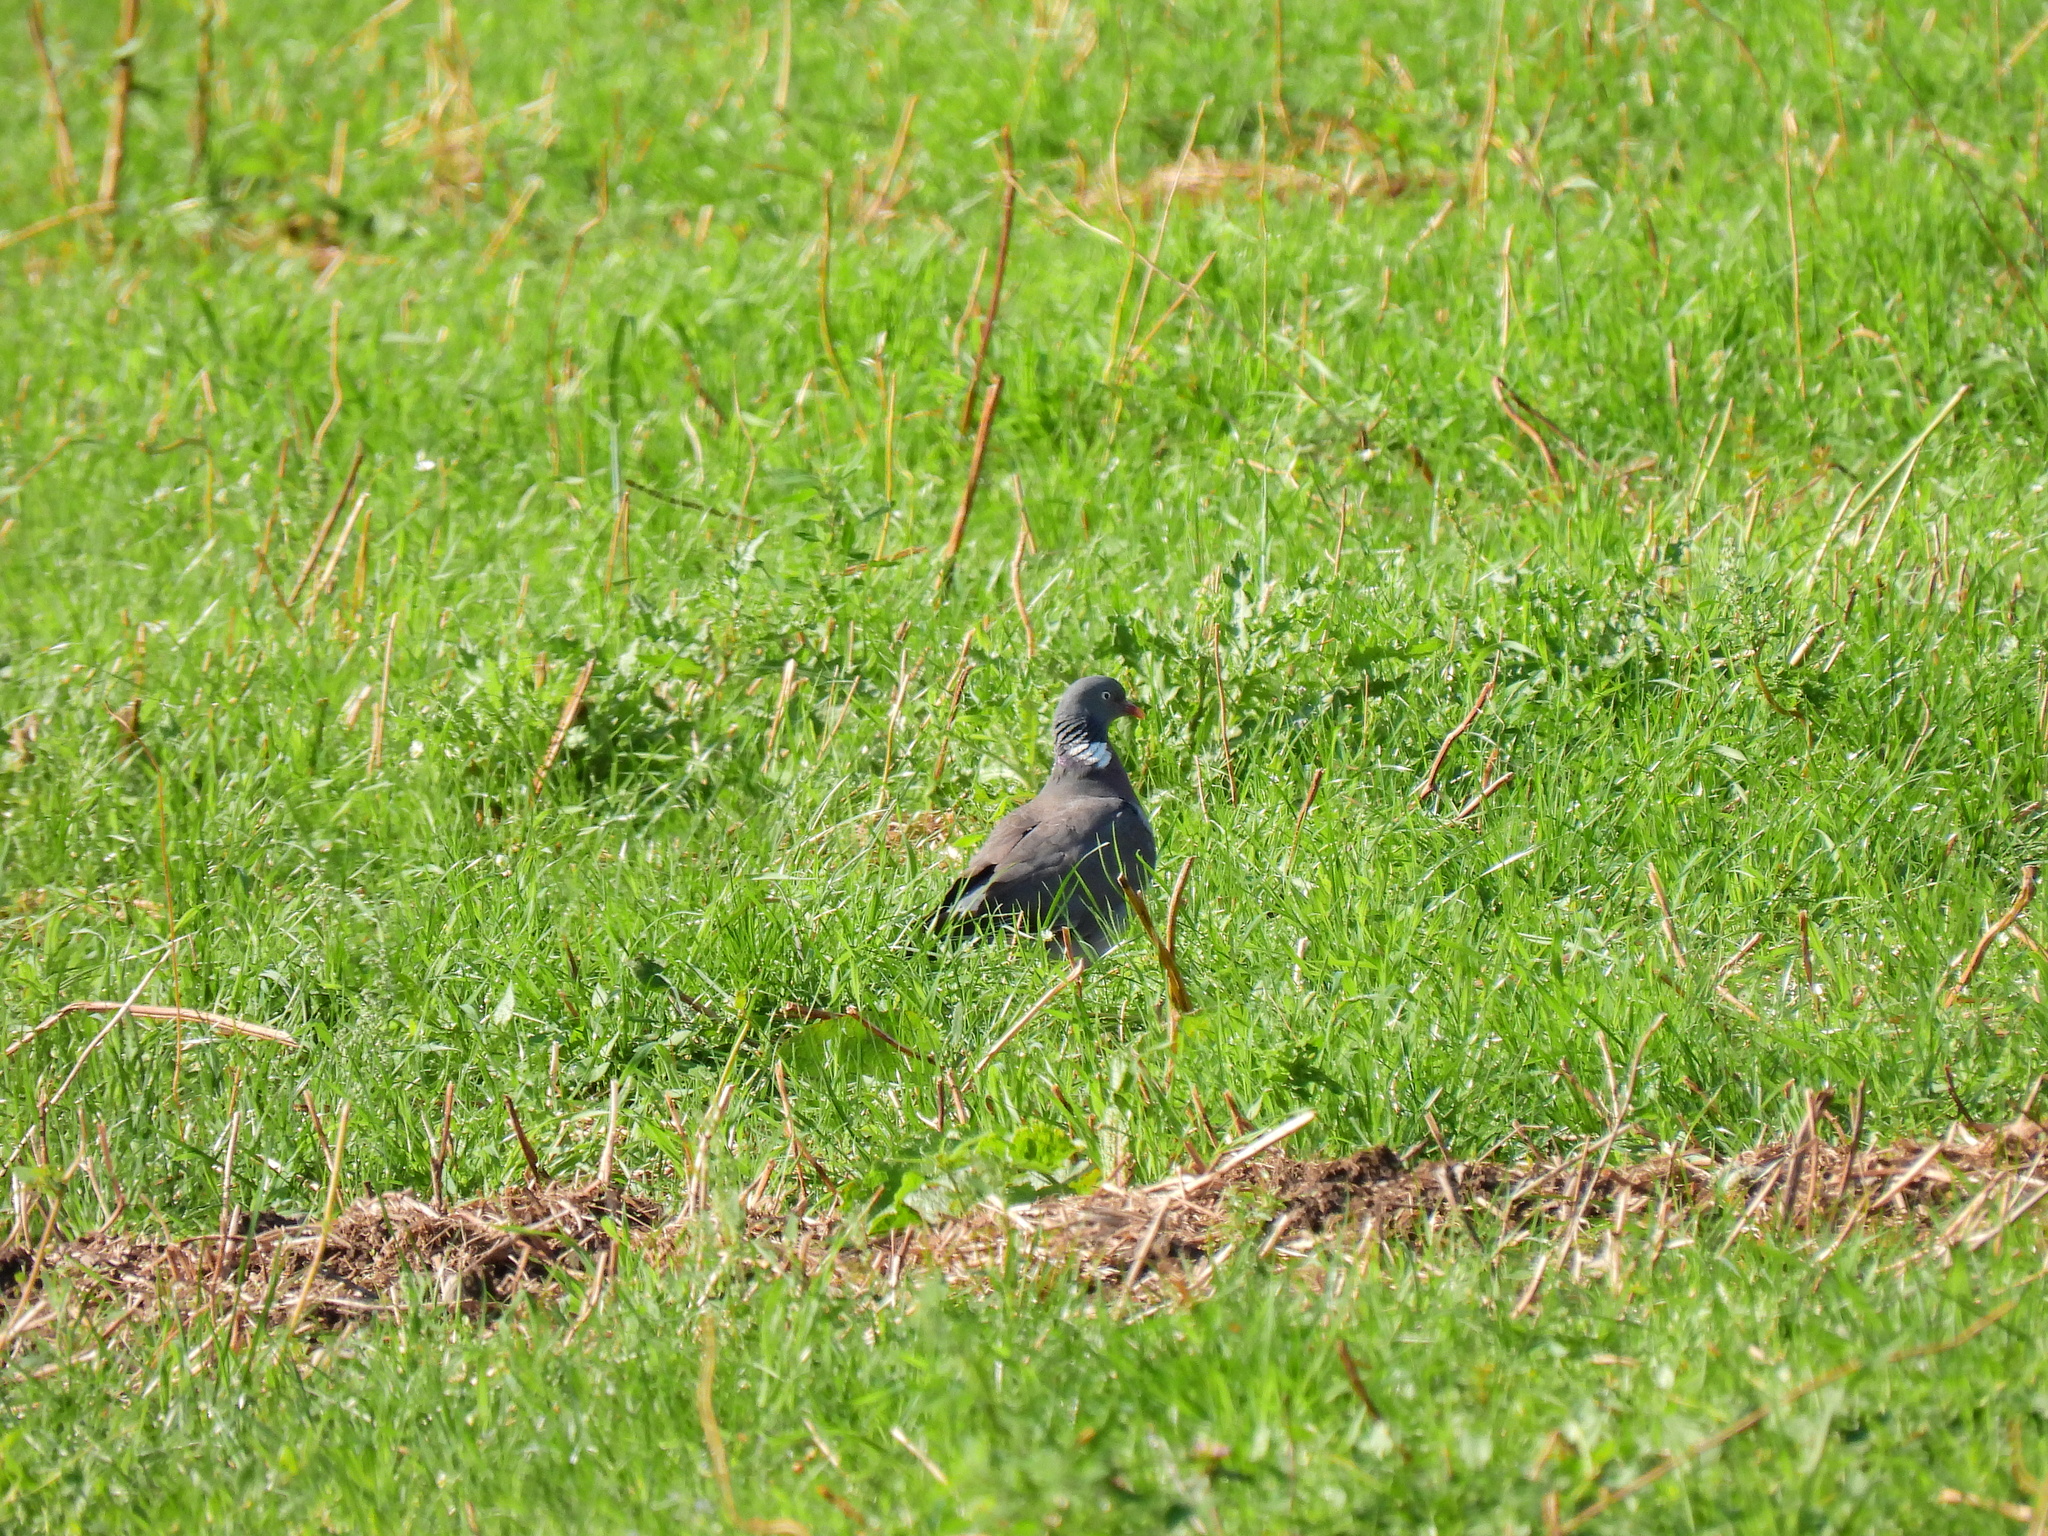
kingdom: Animalia
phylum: Chordata
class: Aves
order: Columbiformes
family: Columbidae
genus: Columba
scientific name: Columba palumbus
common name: Common wood pigeon
